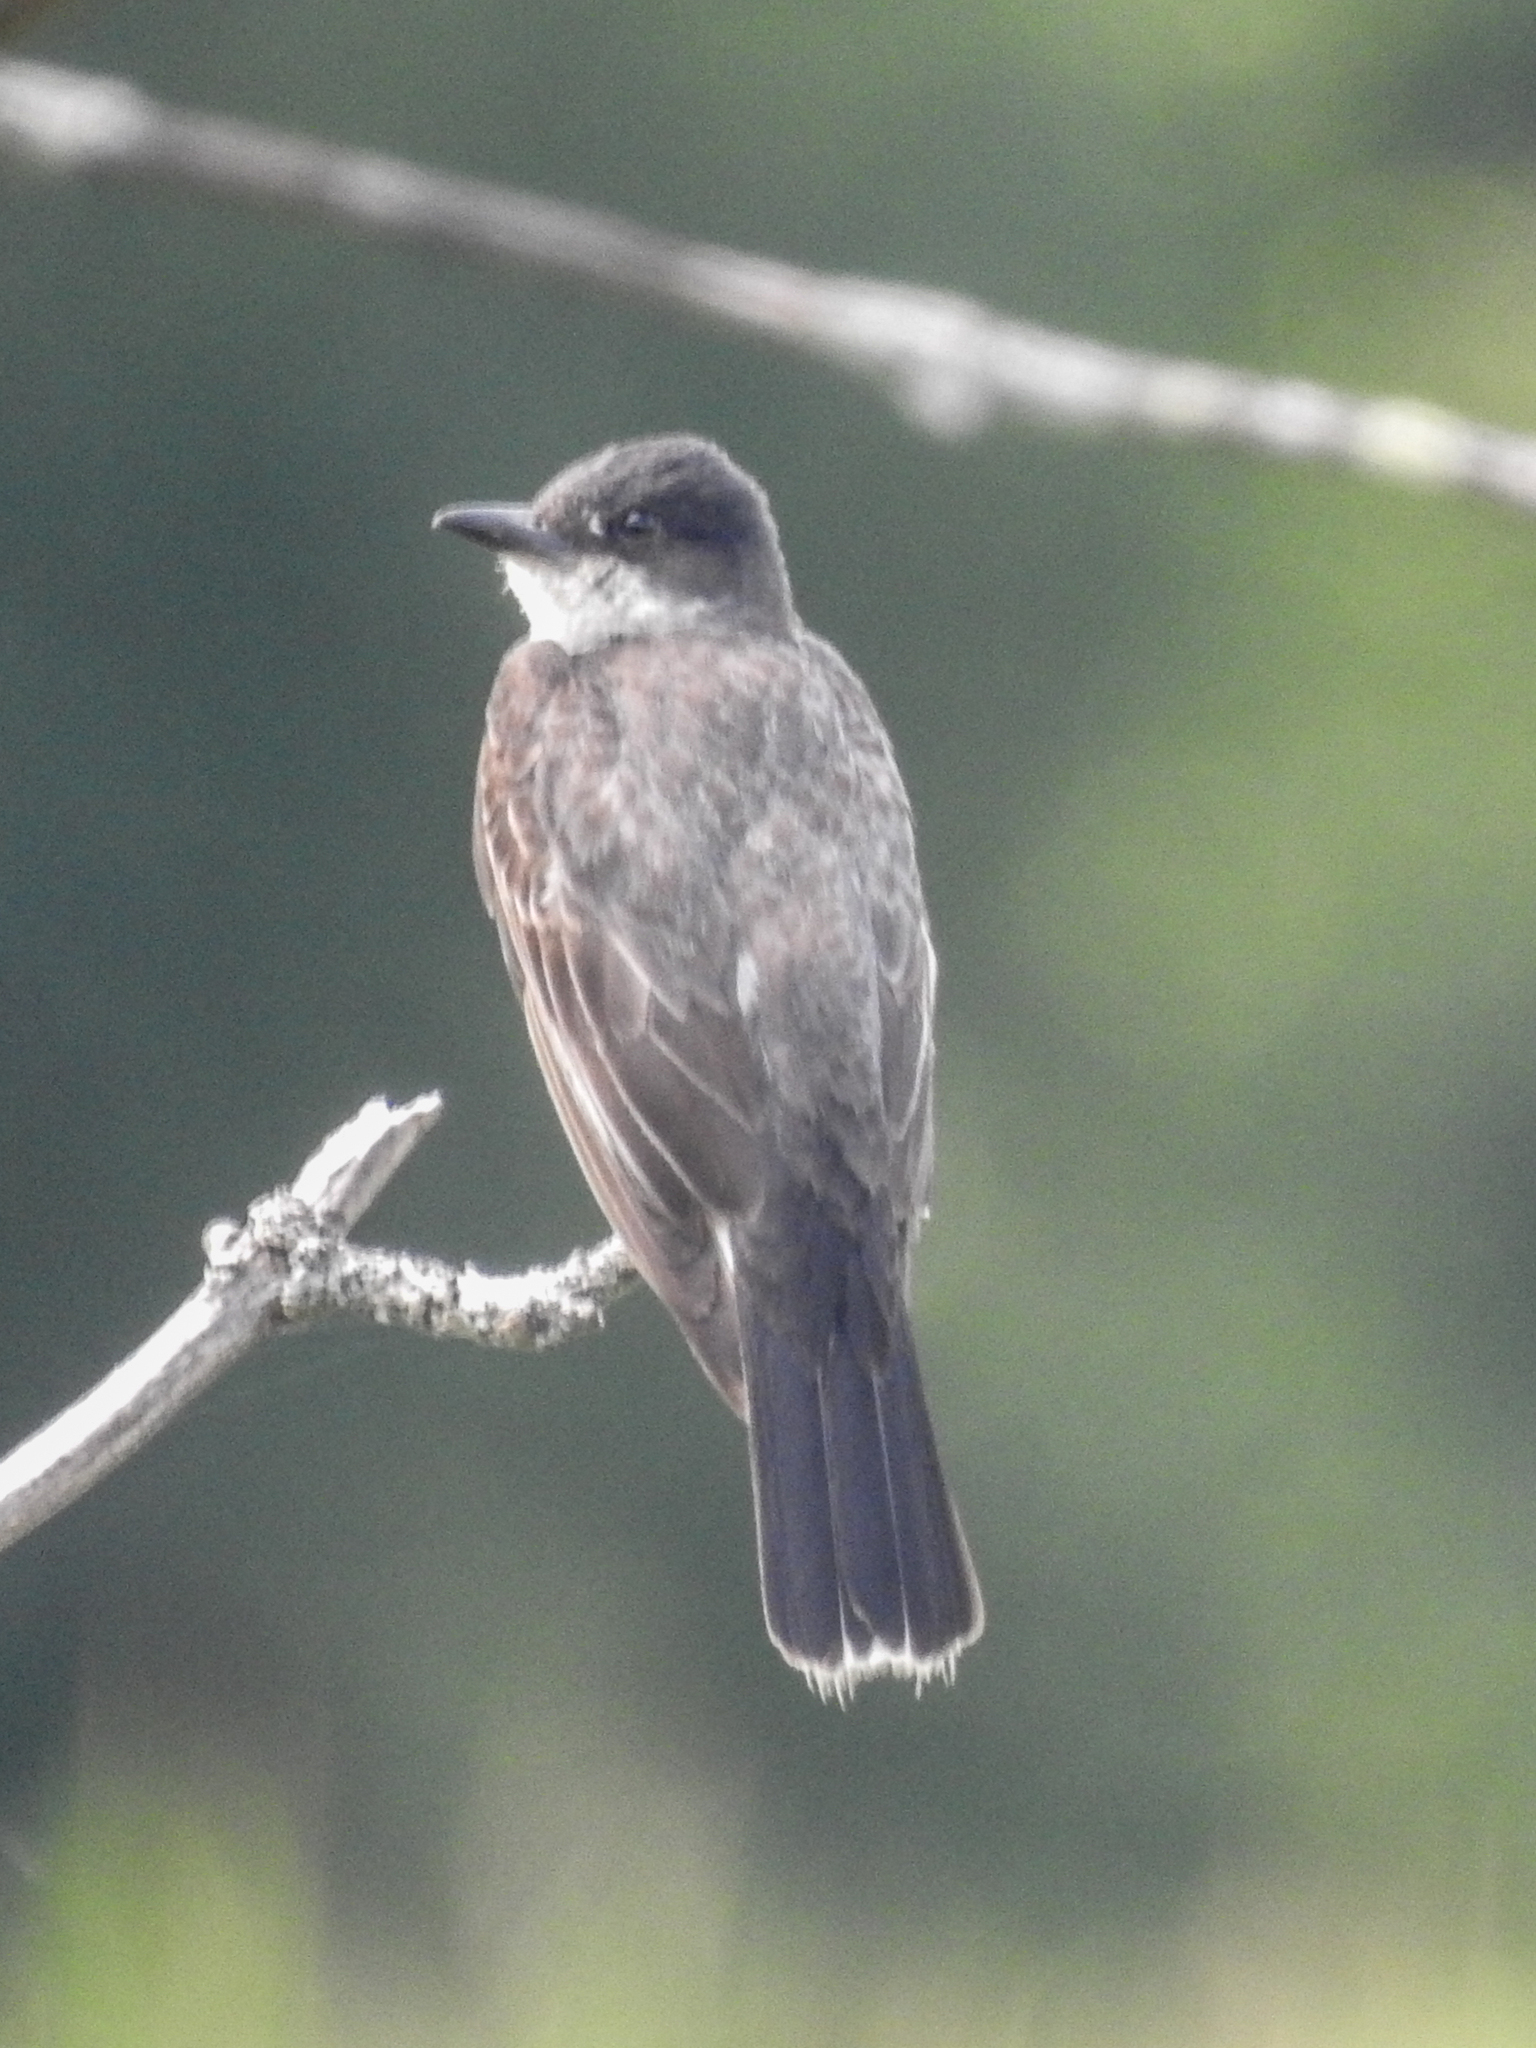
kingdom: Animalia
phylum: Chordata
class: Aves
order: Passeriformes
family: Tyrannidae
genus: Tyrannus
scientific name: Tyrannus tyrannus
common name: Eastern kingbird
